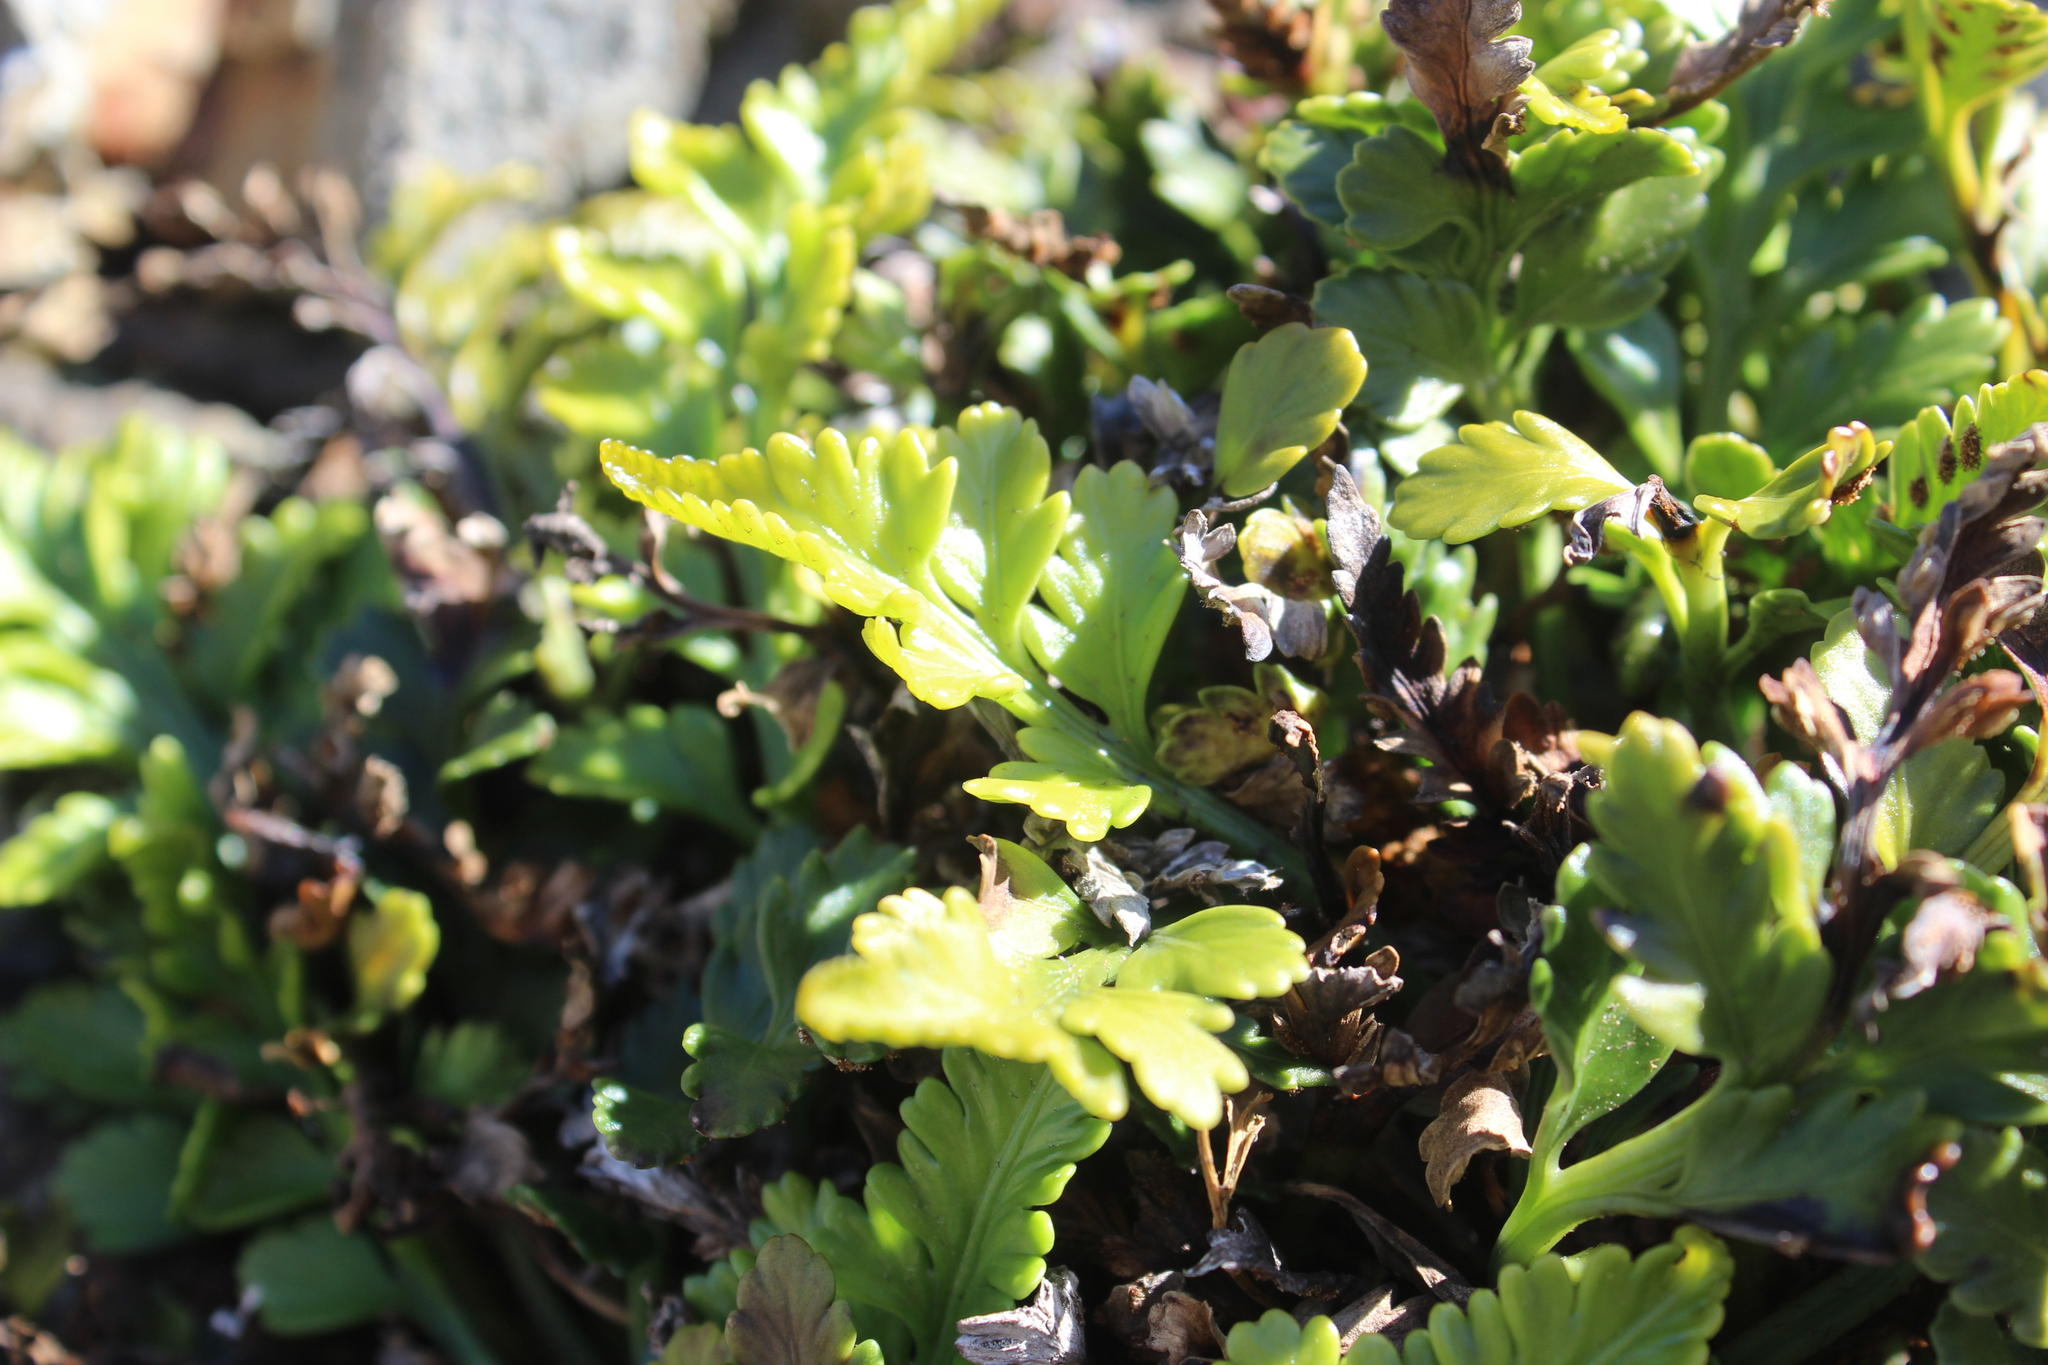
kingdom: Plantae
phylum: Tracheophyta
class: Polypodiopsida
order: Polypodiales
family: Aspleniaceae
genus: Asplenium
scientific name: Asplenium appendiculatum
